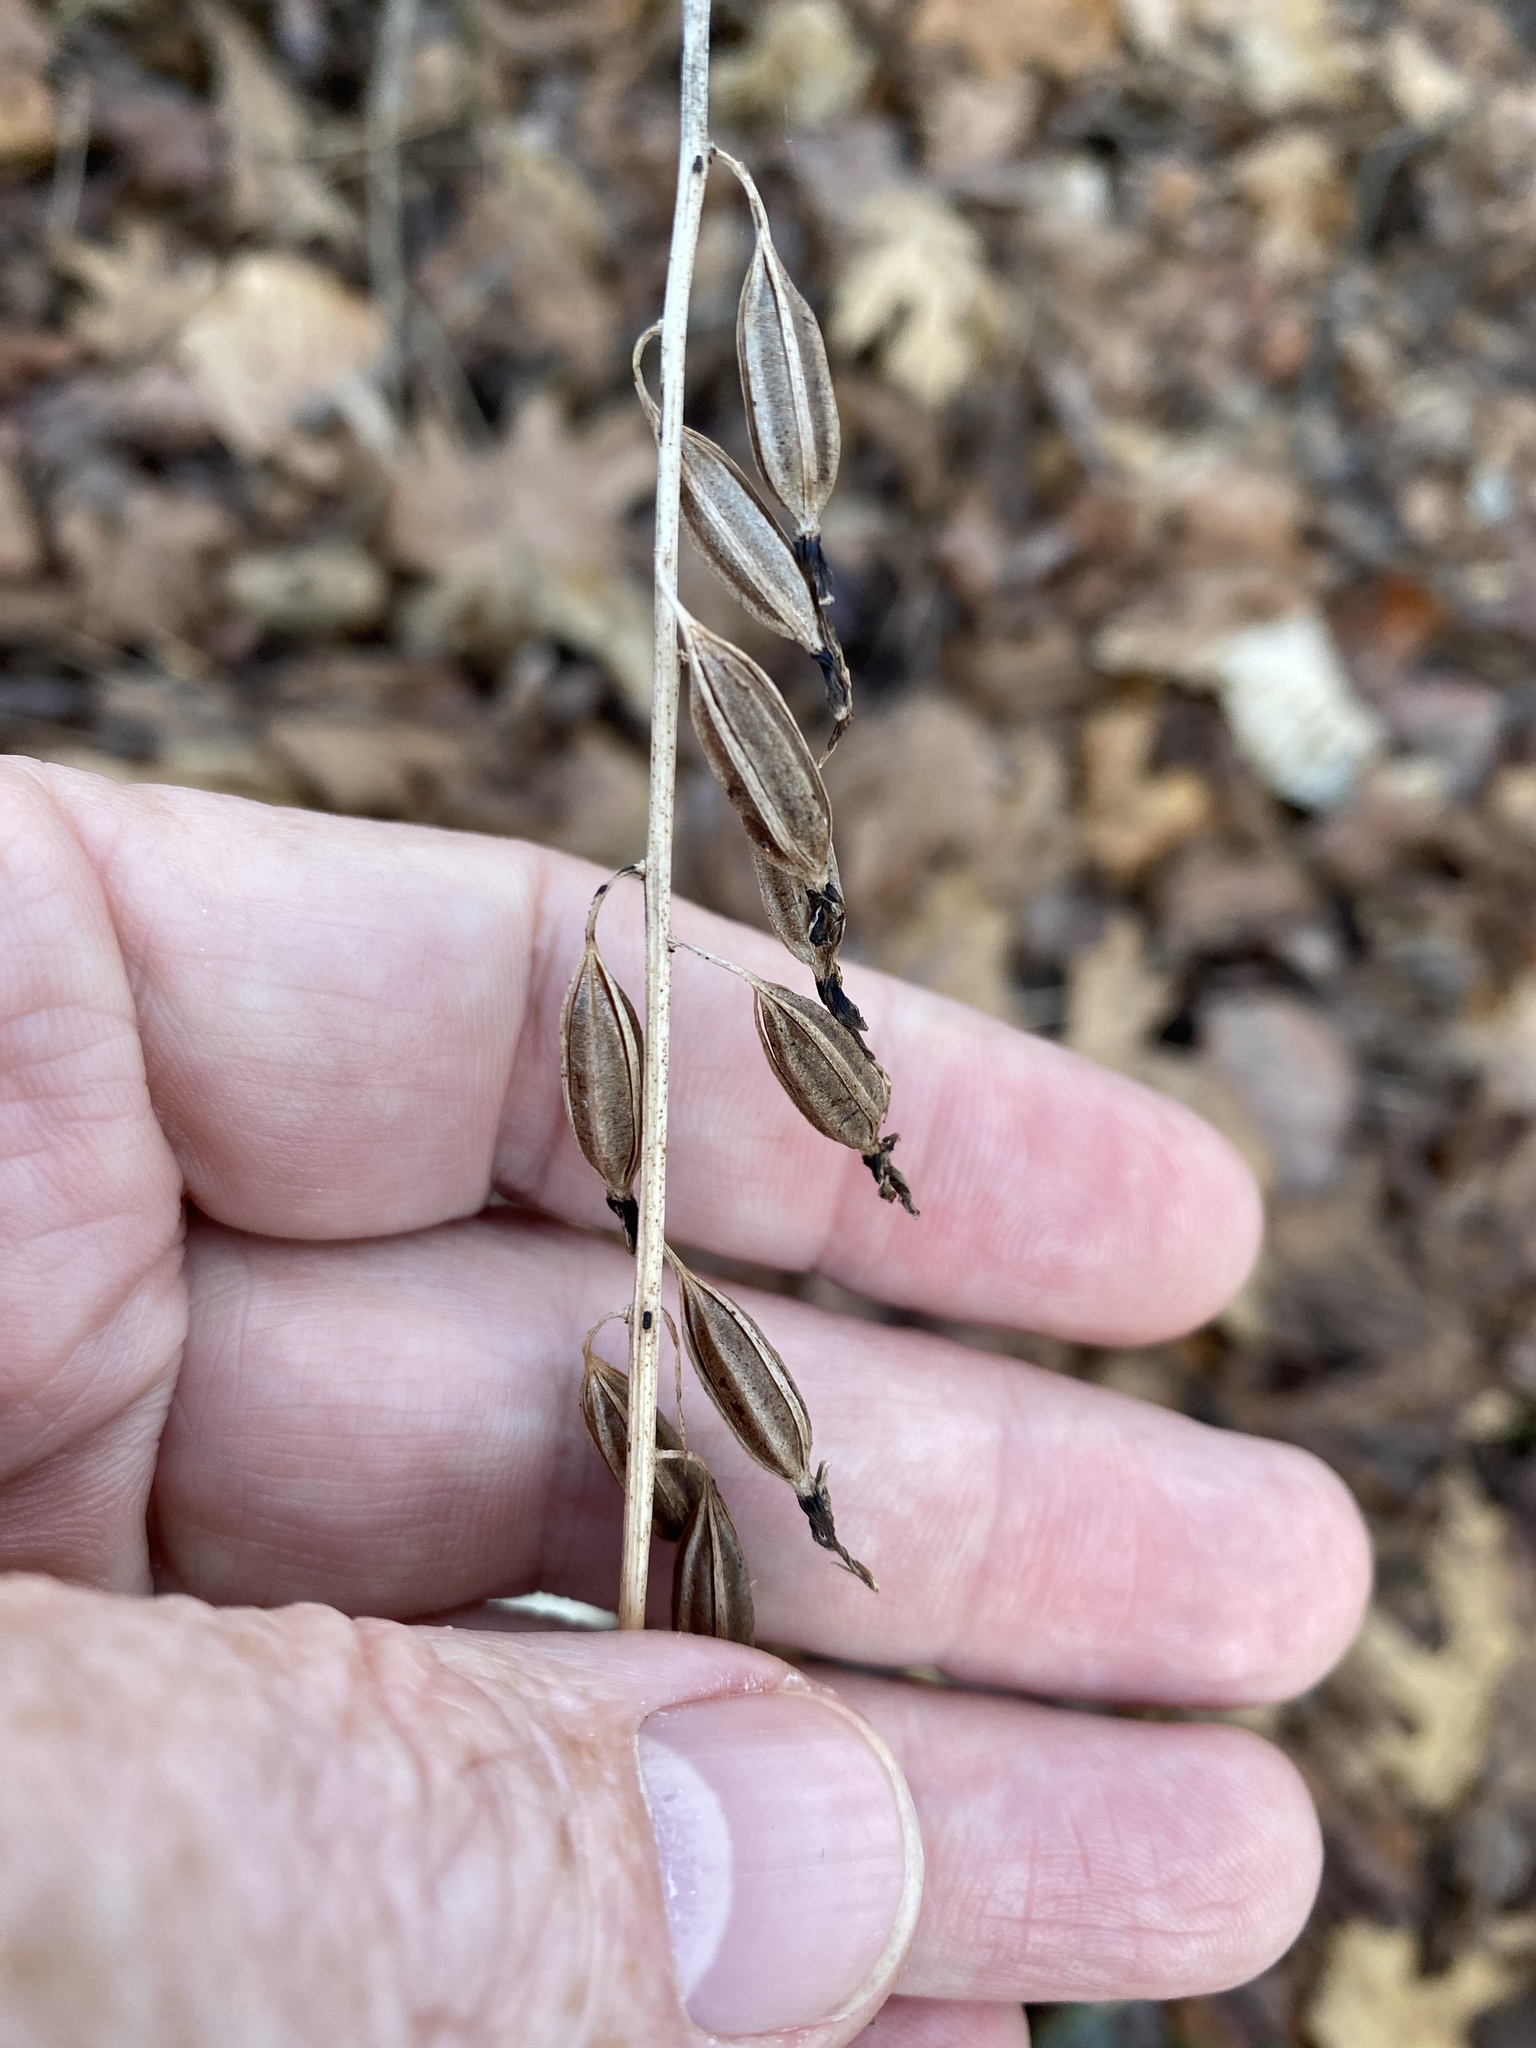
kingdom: Plantae
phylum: Tracheophyta
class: Liliopsida
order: Asparagales
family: Orchidaceae
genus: Tipularia
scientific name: Tipularia discolor
